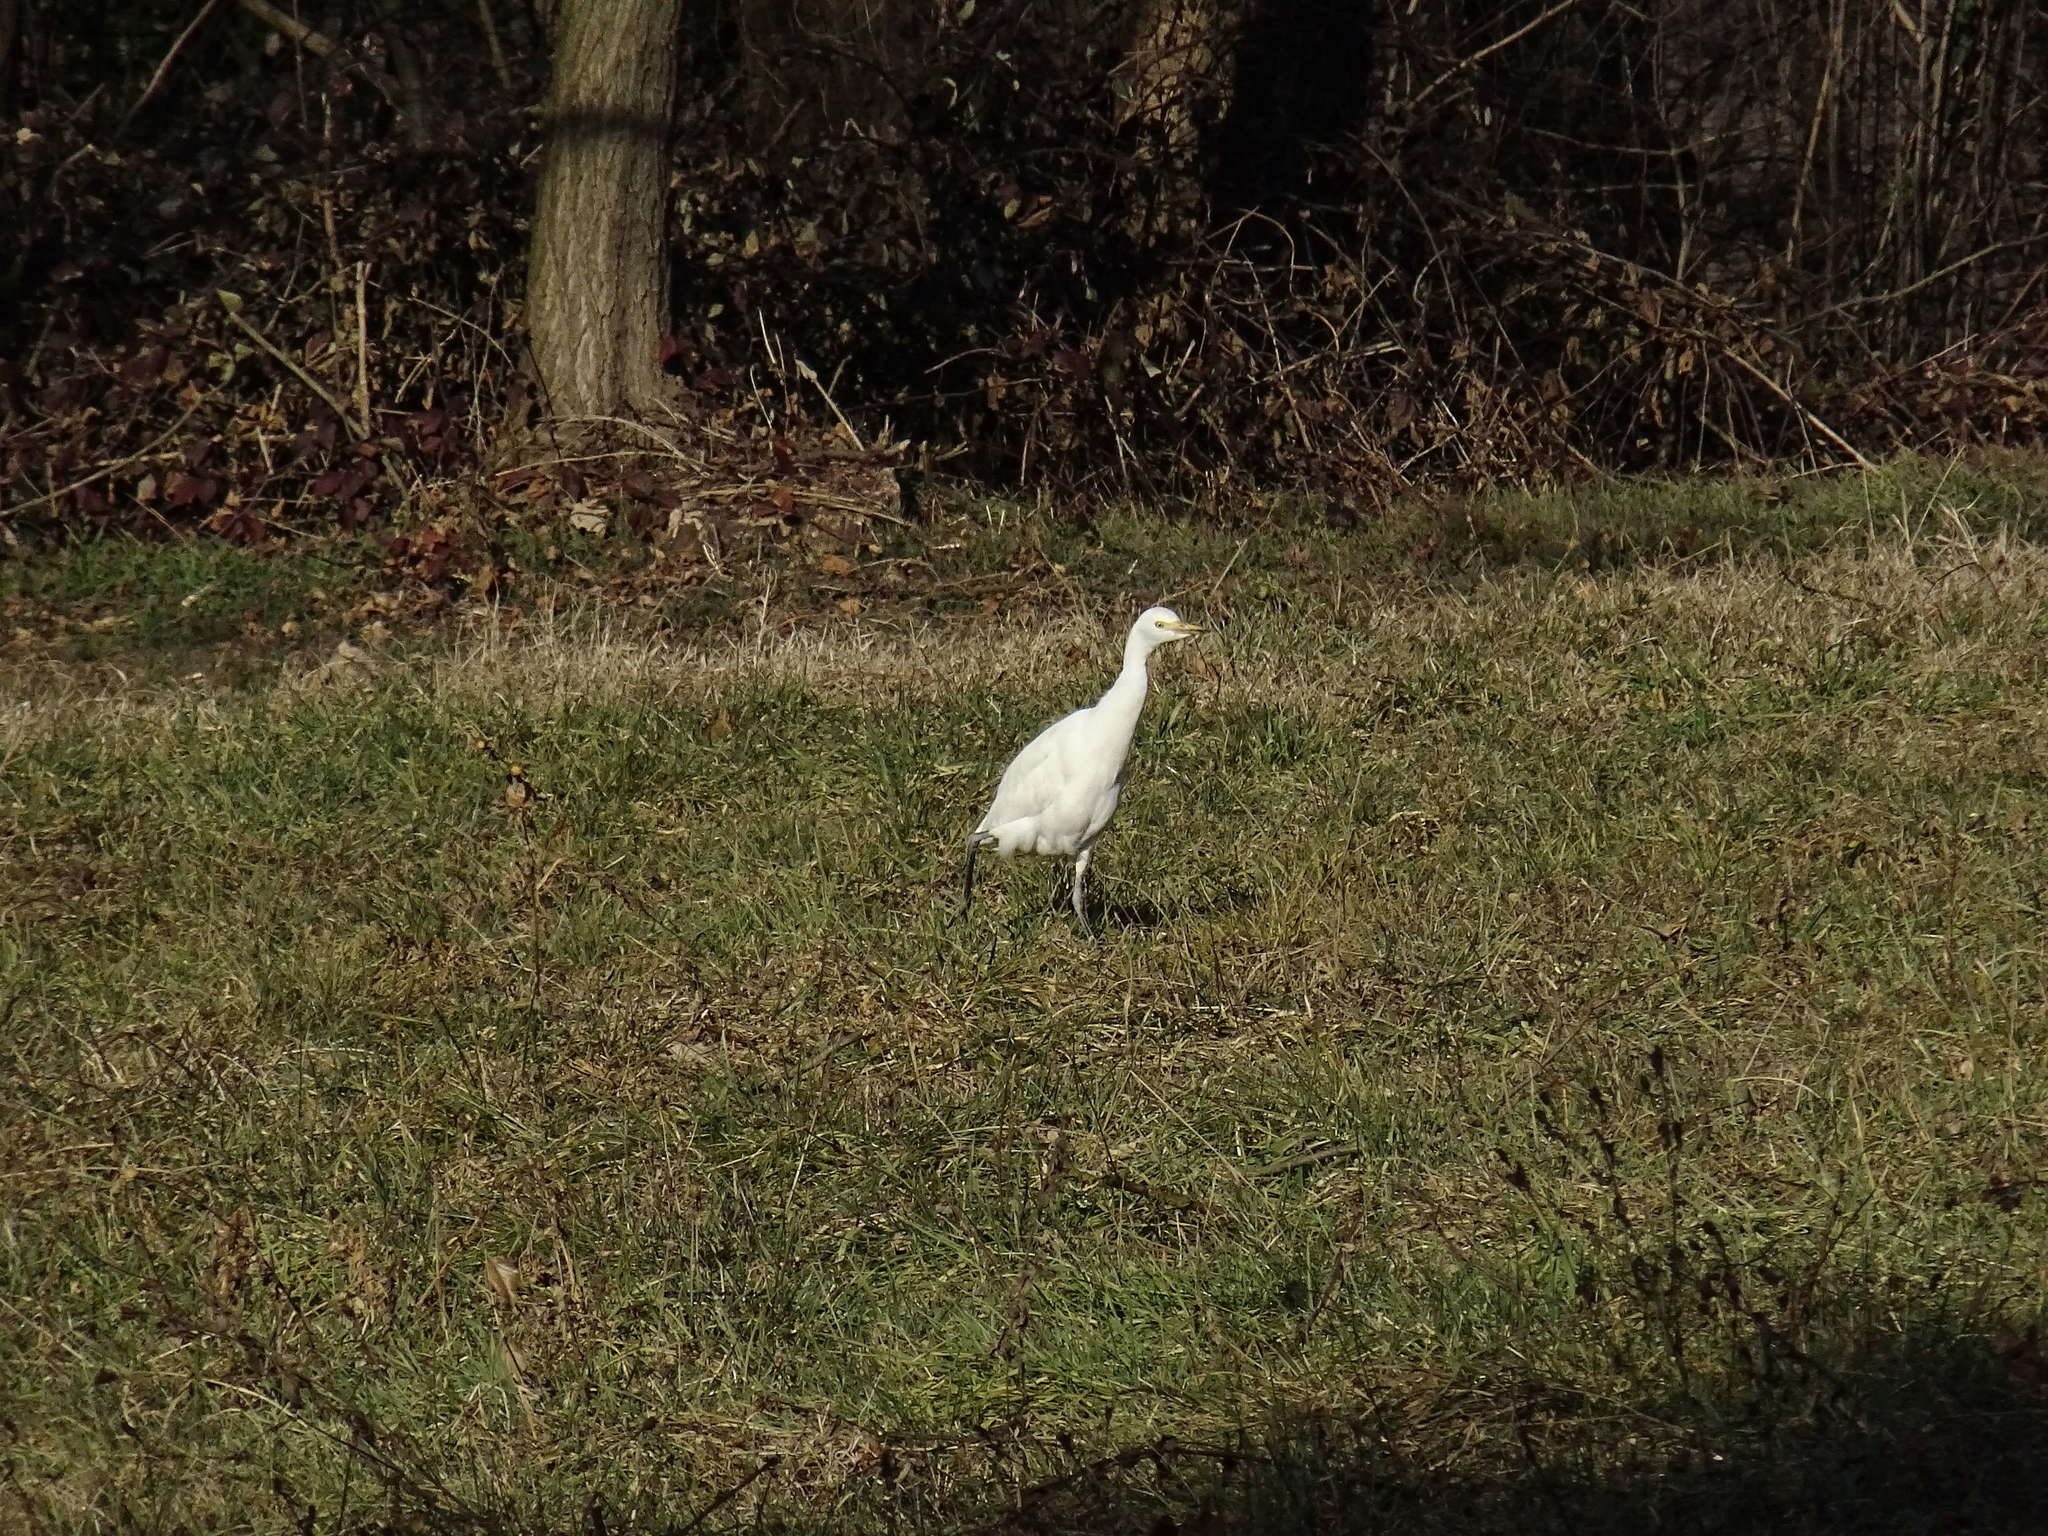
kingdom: Animalia
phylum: Chordata
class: Aves
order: Pelecaniformes
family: Ardeidae
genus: Bubulcus
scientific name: Bubulcus ibis
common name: Cattle egret
